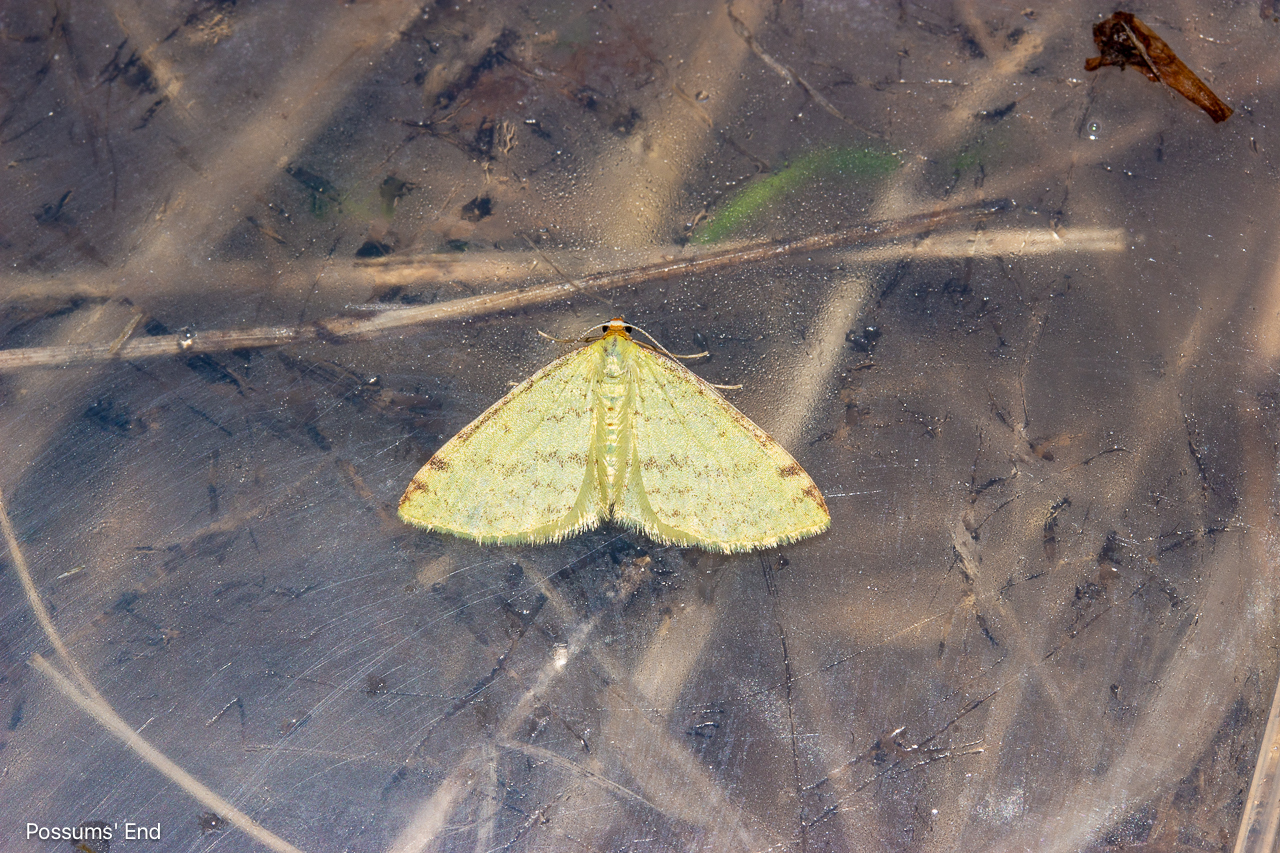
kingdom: Animalia
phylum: Arthropoda
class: Insecta
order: Lepidoptera
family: Geometridae
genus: Epiphryne
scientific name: Epiphryne undosata
